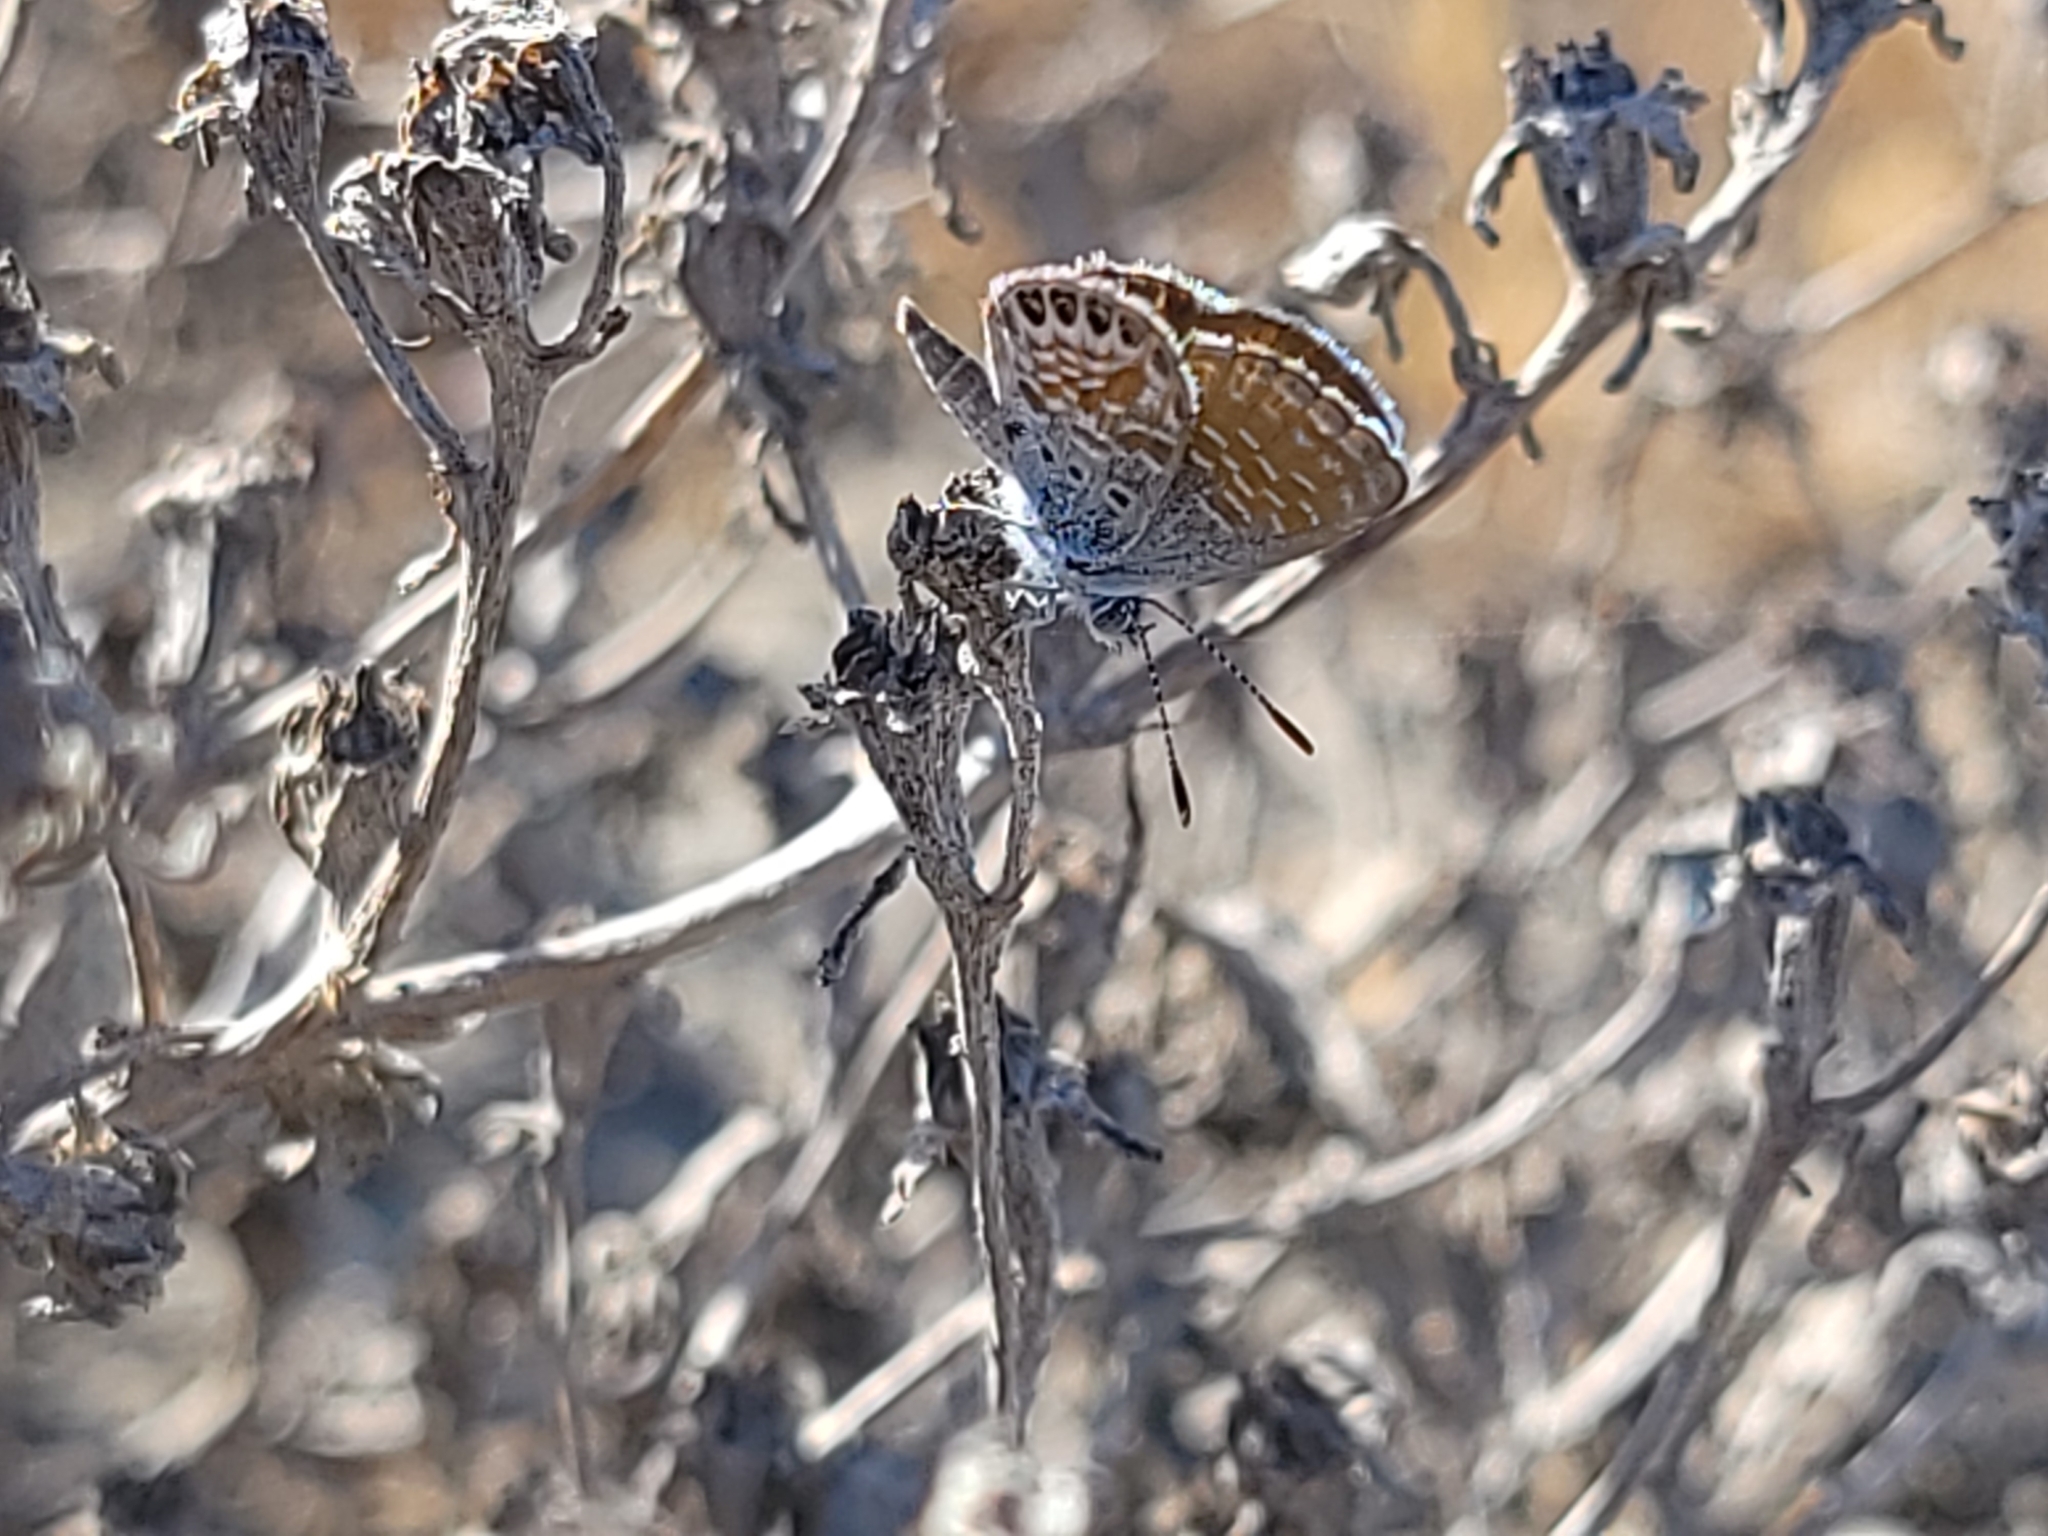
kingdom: Animalia
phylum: Arthropoda
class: Insecta
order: Lepidoptera
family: Lycaenidae
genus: Brephidium
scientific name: Brephidium exilis
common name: Pygmy blue
